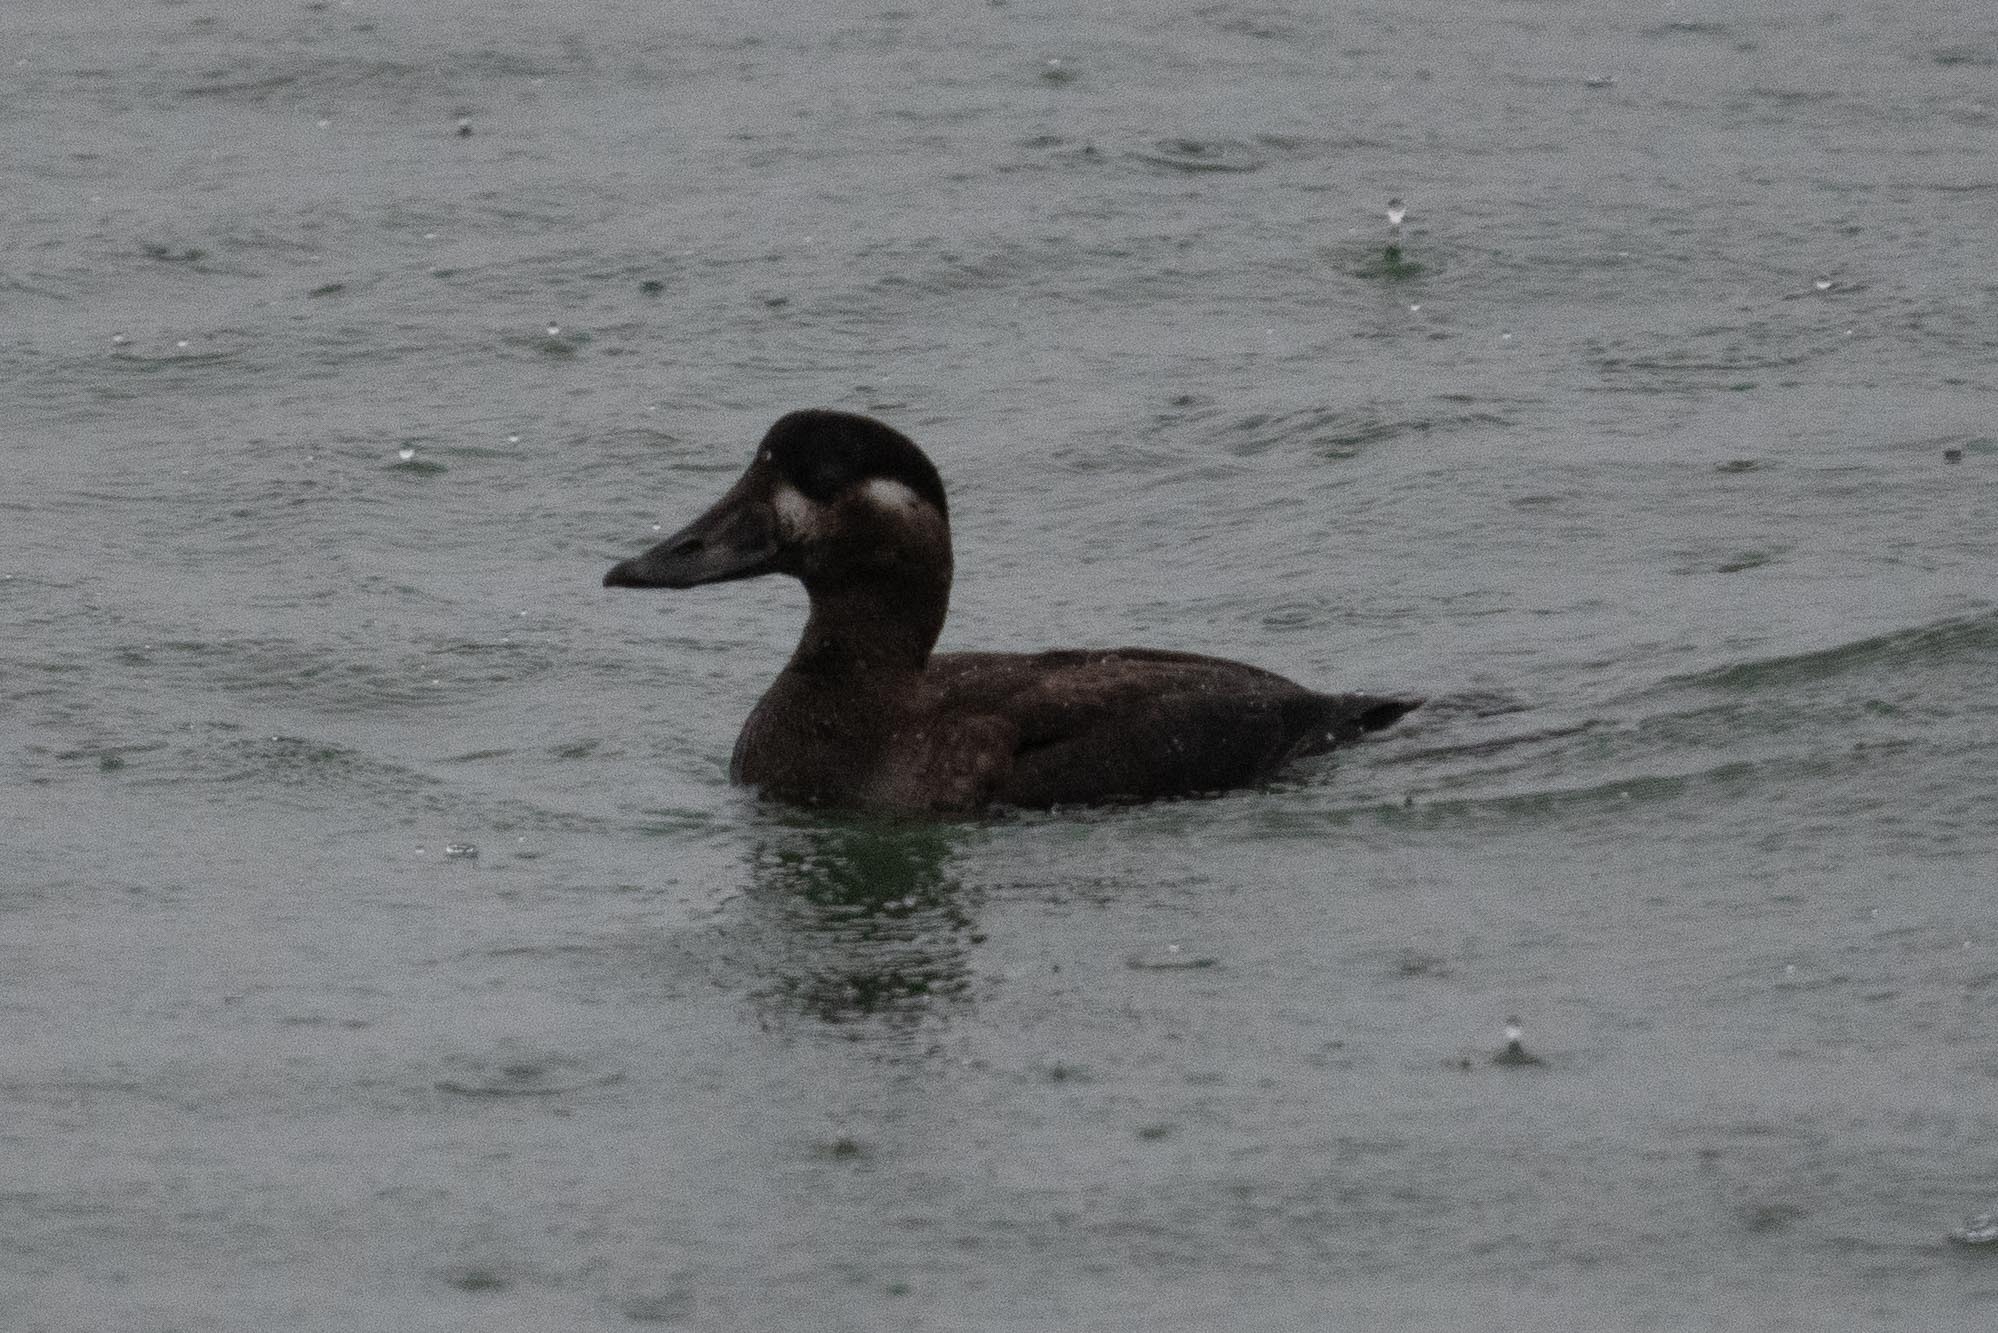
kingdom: Animalia
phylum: Chordata
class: Aves
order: Anseriformes
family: Anatidae
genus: Melanitta
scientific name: Melanitta perspicillata
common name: Surf scoter
